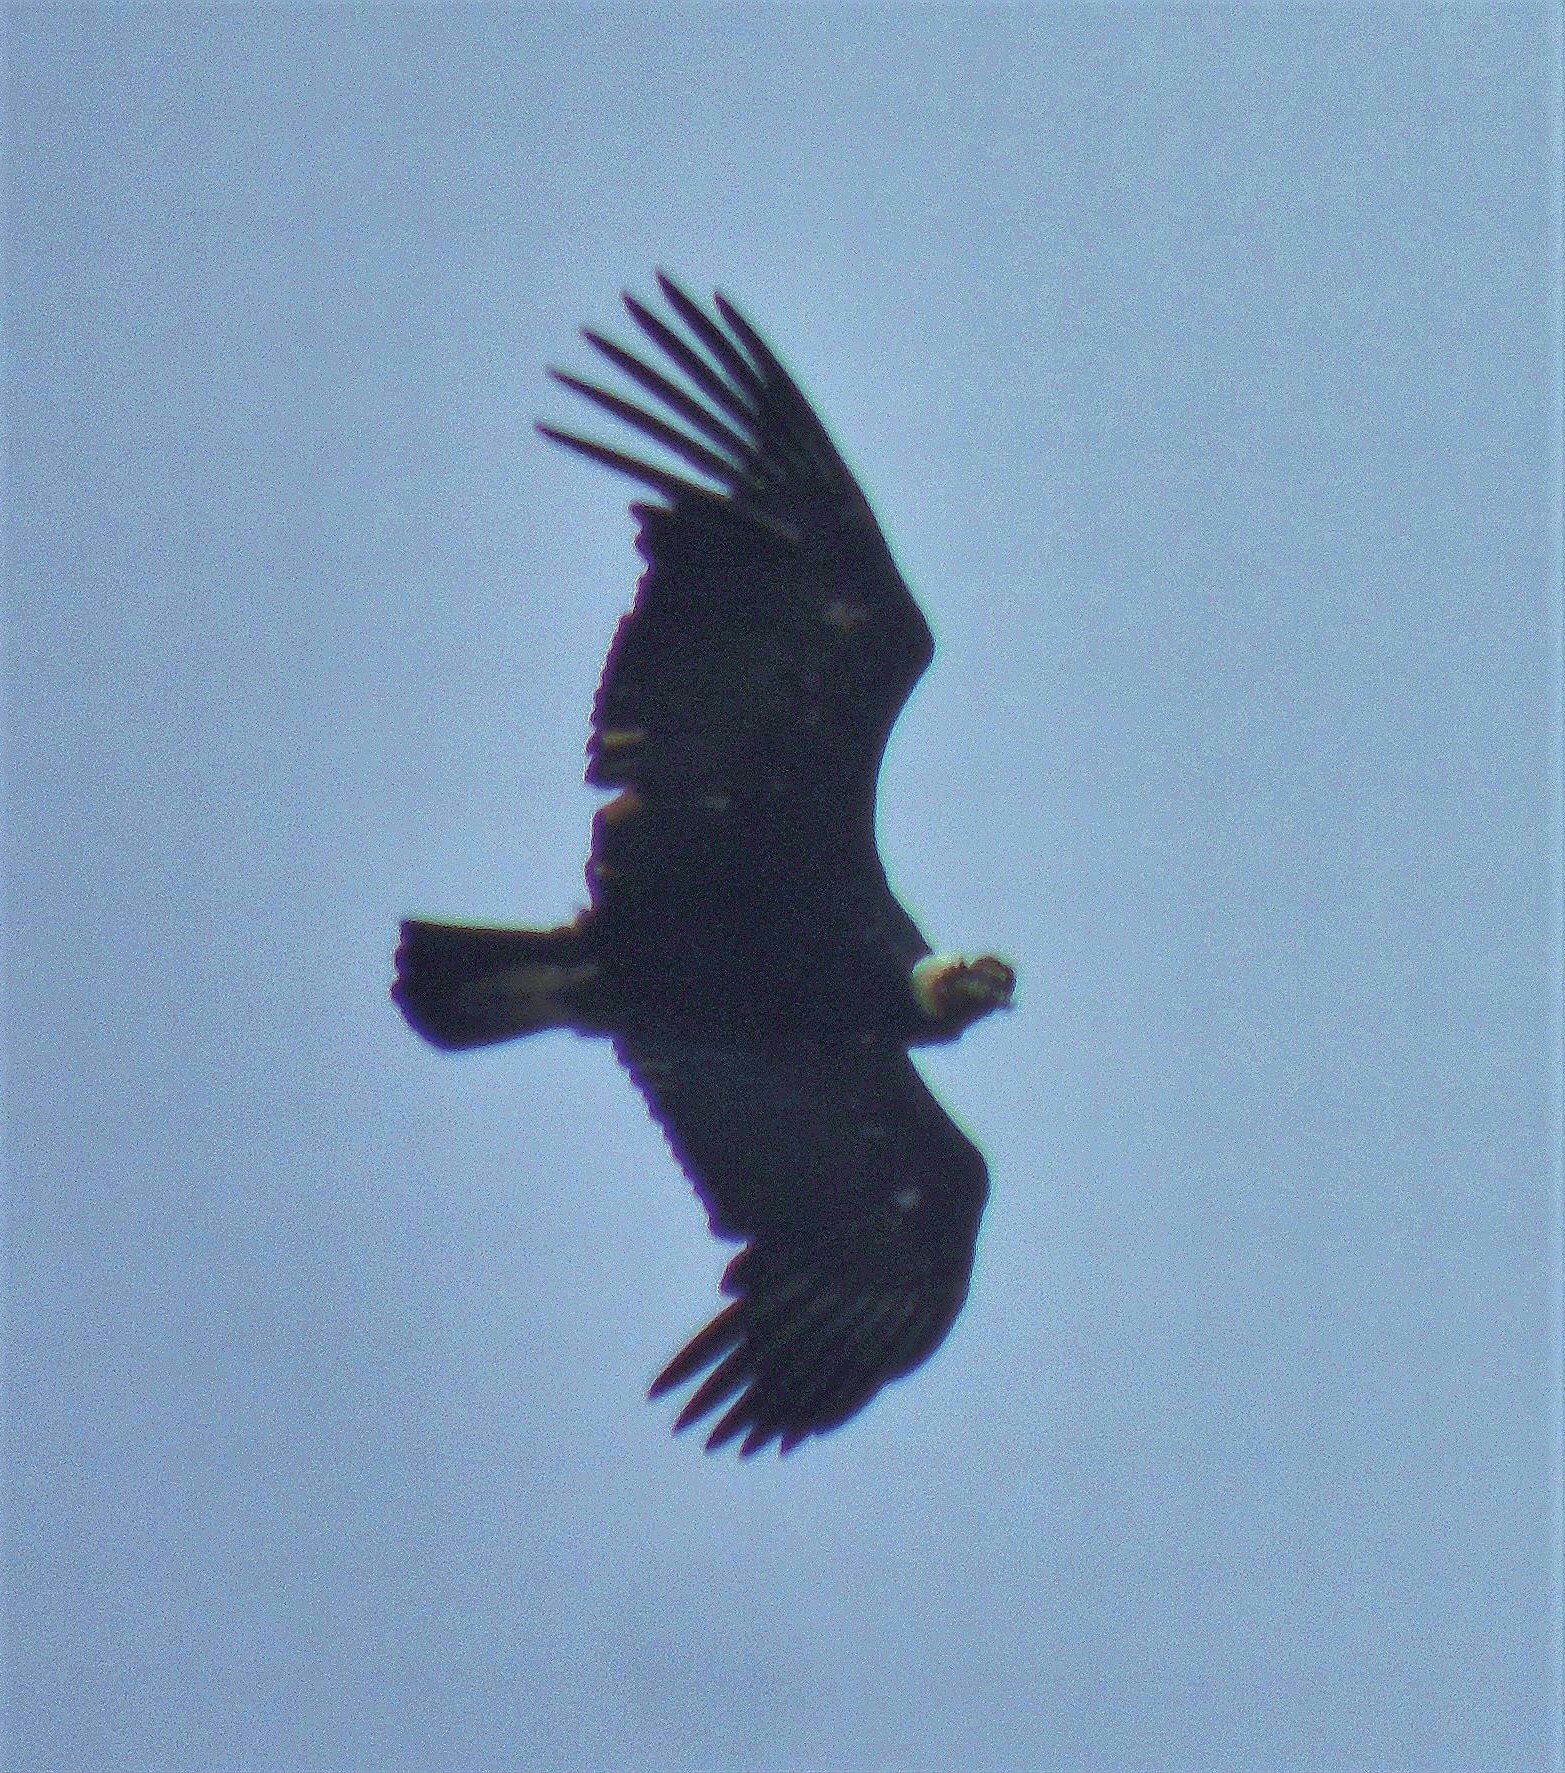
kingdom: Animalia
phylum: Chordata
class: Aves
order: Accipitriformes
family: Cathartidae
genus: Vultur
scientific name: Vultur gryphus
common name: Andean condor
